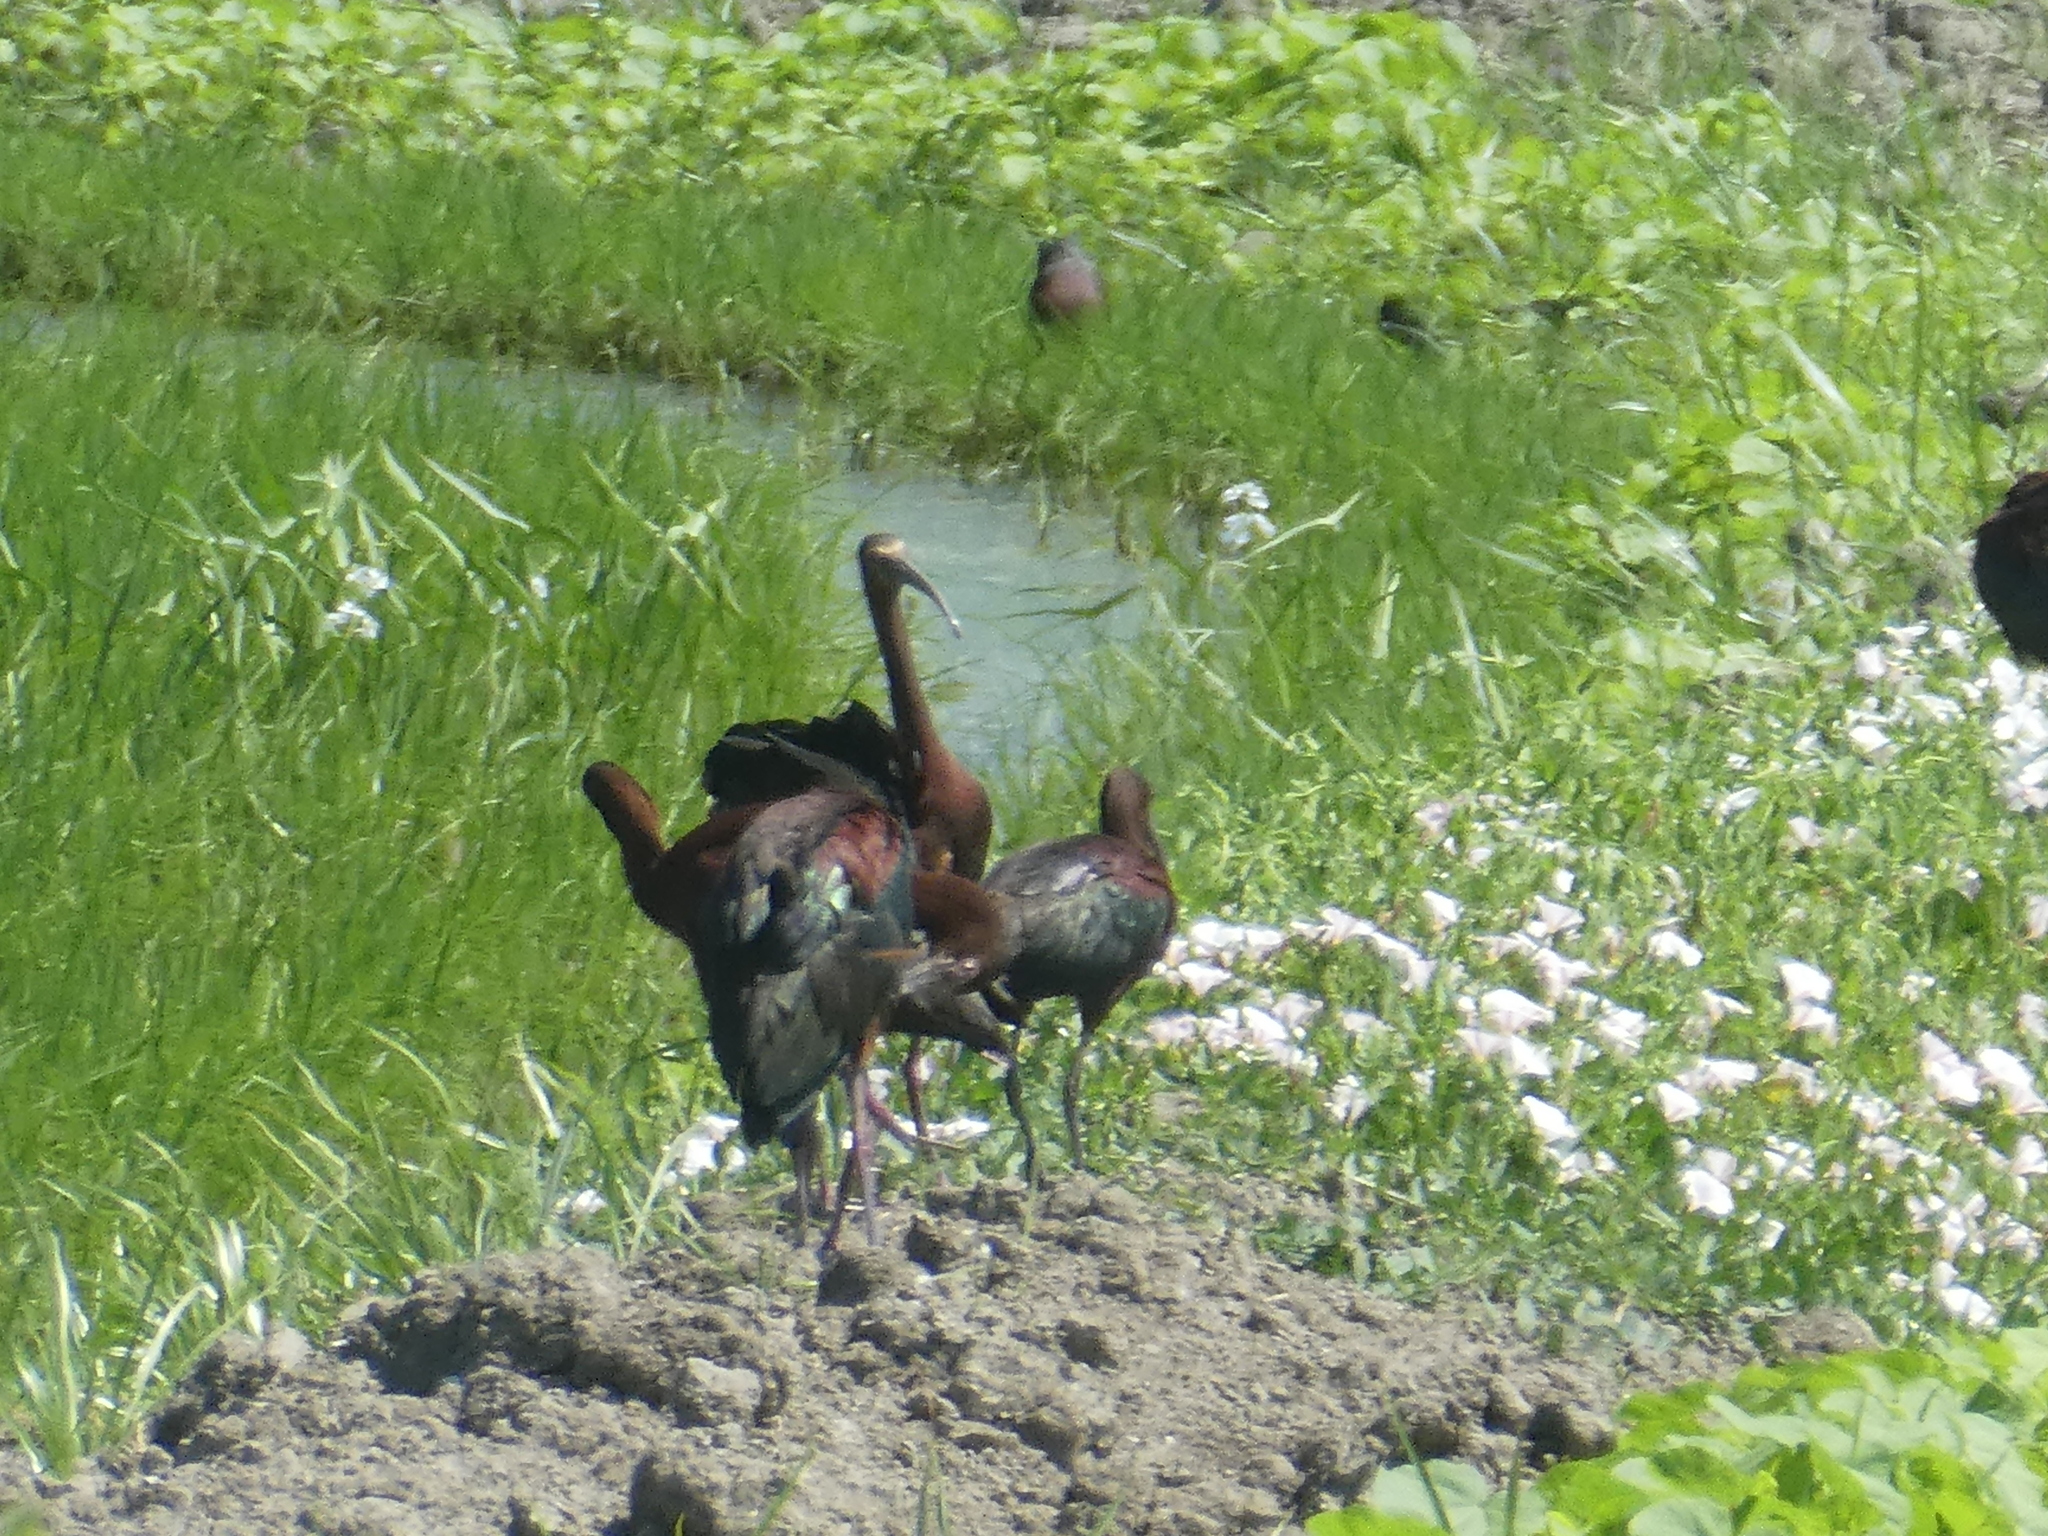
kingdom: Animalia
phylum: Chordata
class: Aves
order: Pelecaniformes
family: Threskiornithidae
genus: Plegadis
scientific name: Plegadis chihi
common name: White-faced ibis
